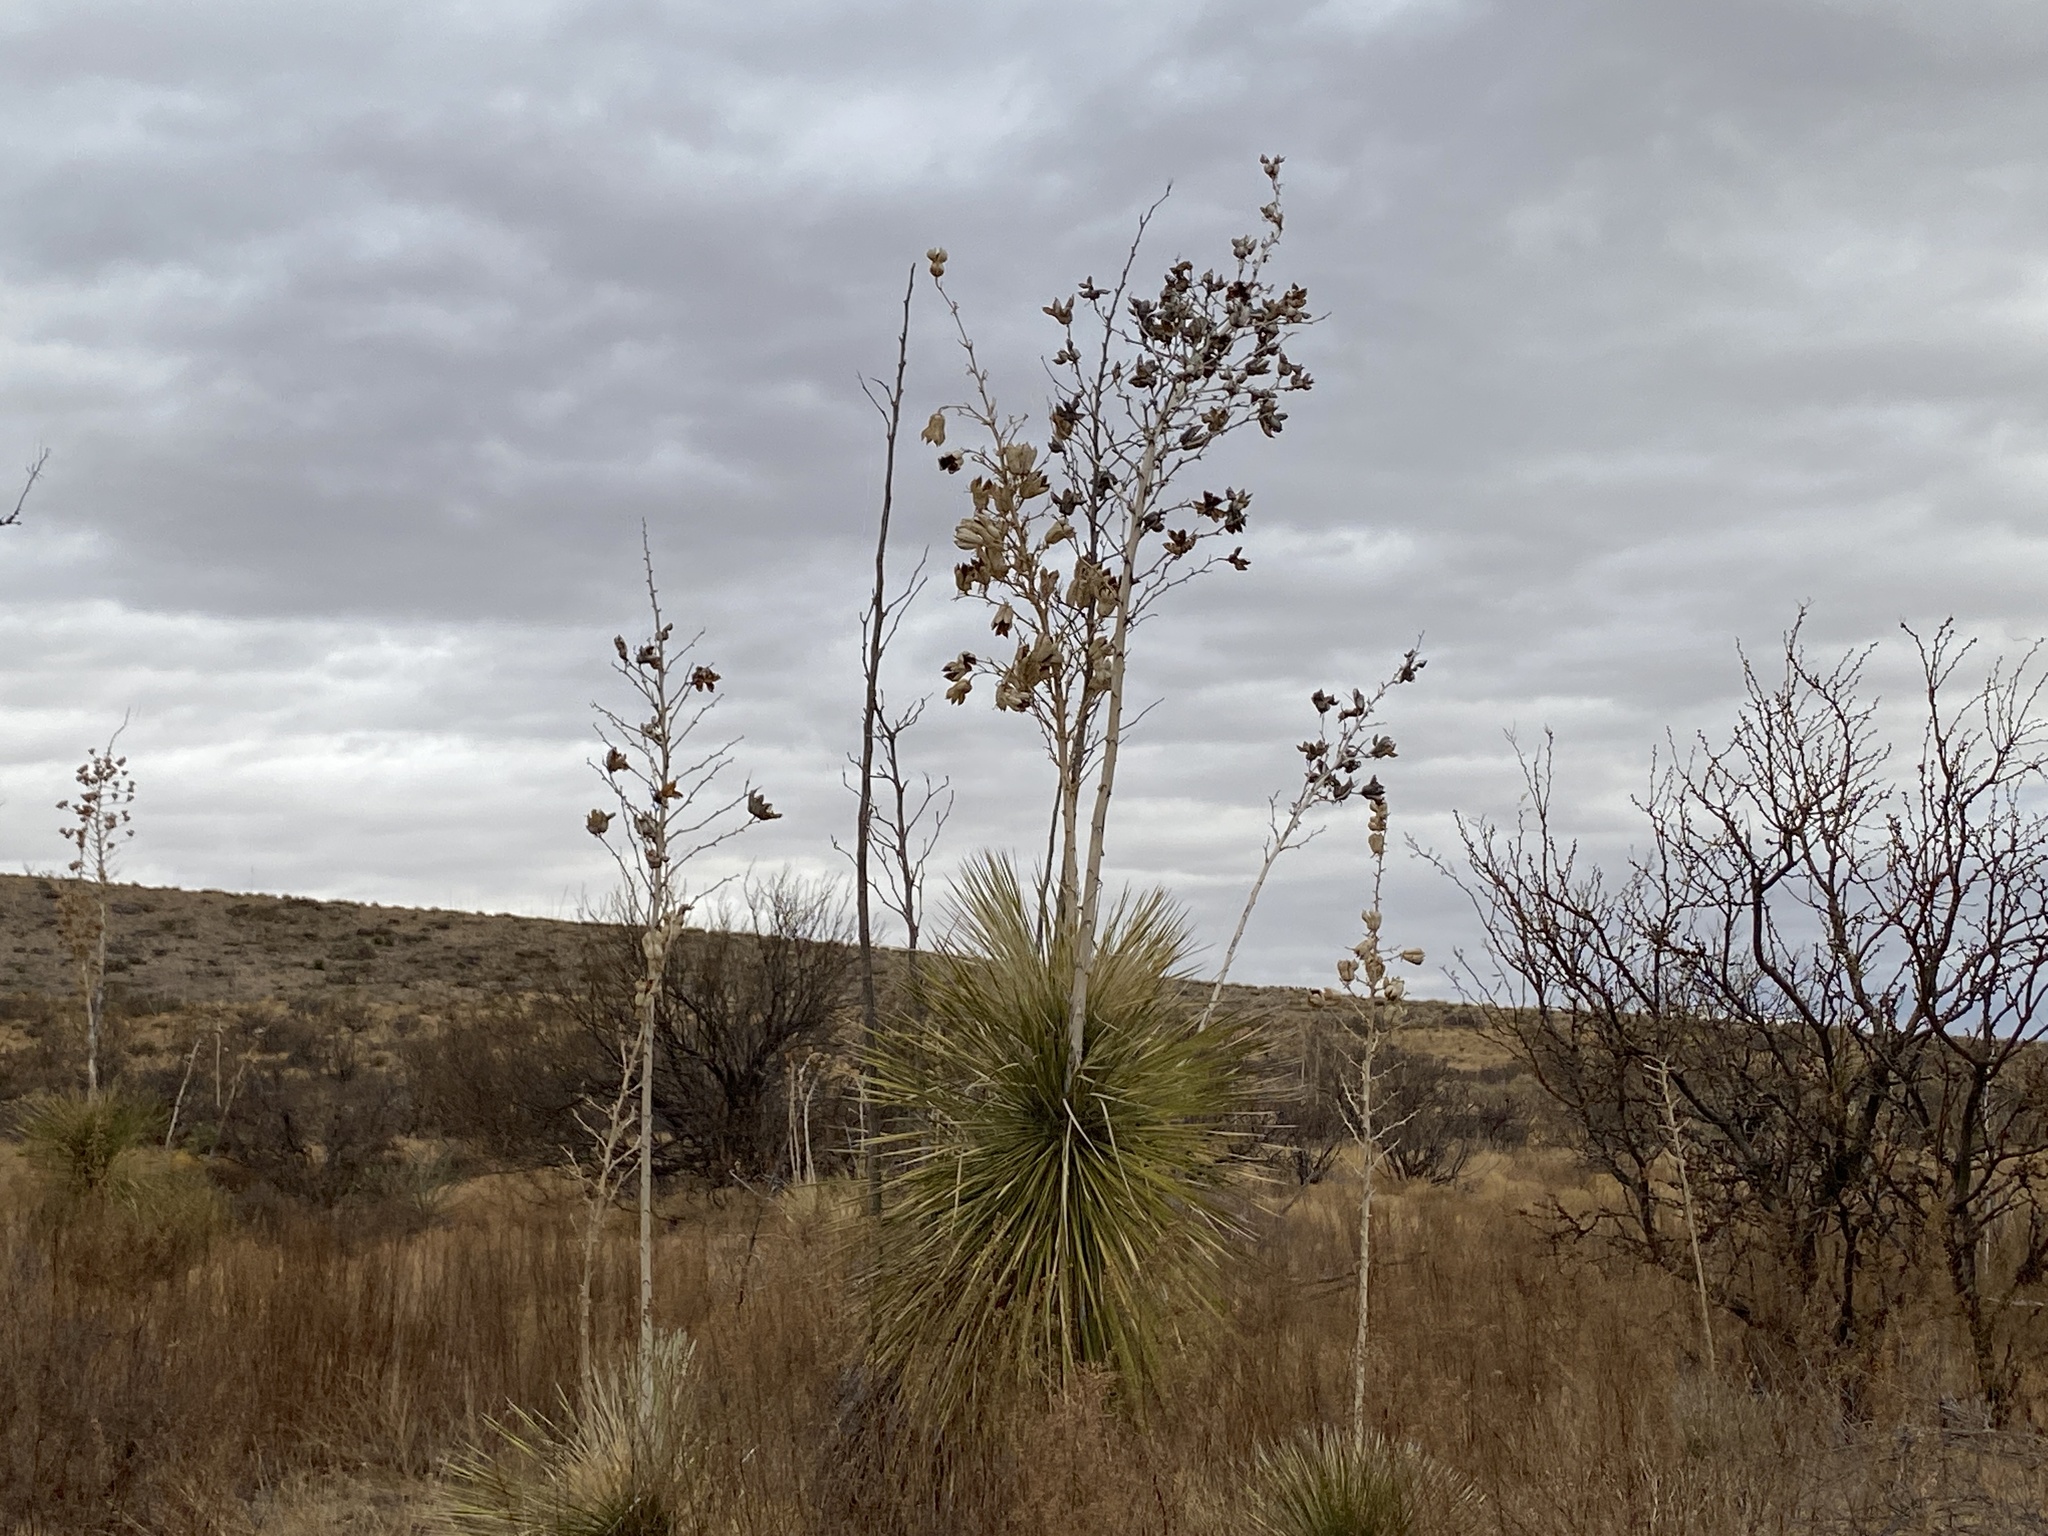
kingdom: Plantae
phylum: Tracheophyta
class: Liliopsida
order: Asparagales
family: Asparagaceae
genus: Yucca
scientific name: Yucca elata
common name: Palmella
